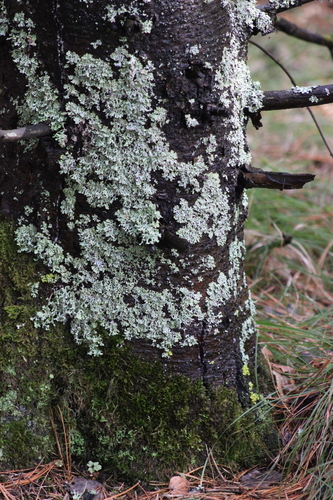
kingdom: Fungi
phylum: Ascomycota
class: Lecanoromycetes
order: Lecanorales
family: Parmeliaceae
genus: Hypogymnia
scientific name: Hypogymnia physodes
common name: Dark crottle
